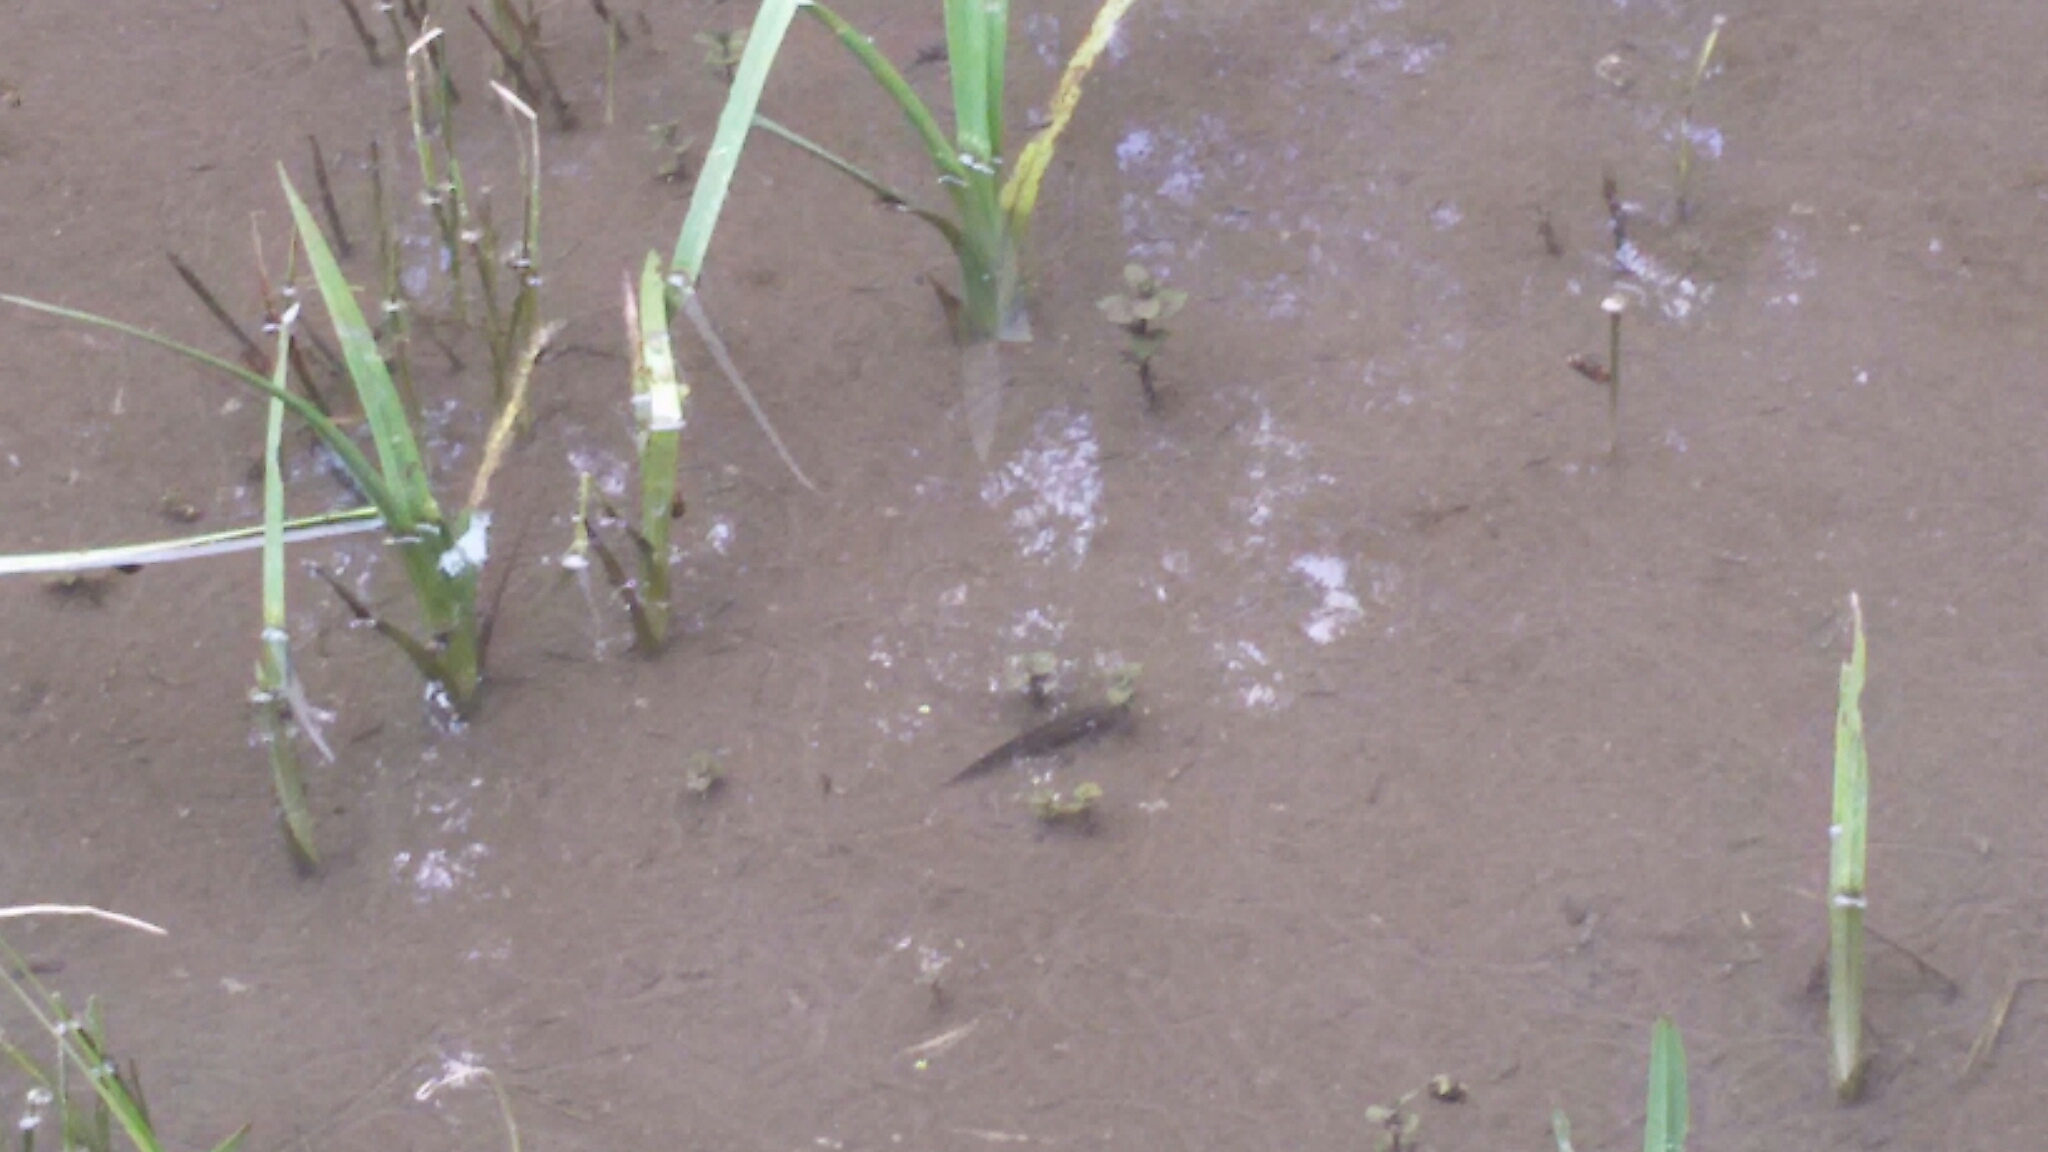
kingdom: Animalia
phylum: Chordata
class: Amphibia
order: Caudata
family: Salamandridae
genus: Lissotriton
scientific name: Lissotriton vulgaris
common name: Smooth newt
